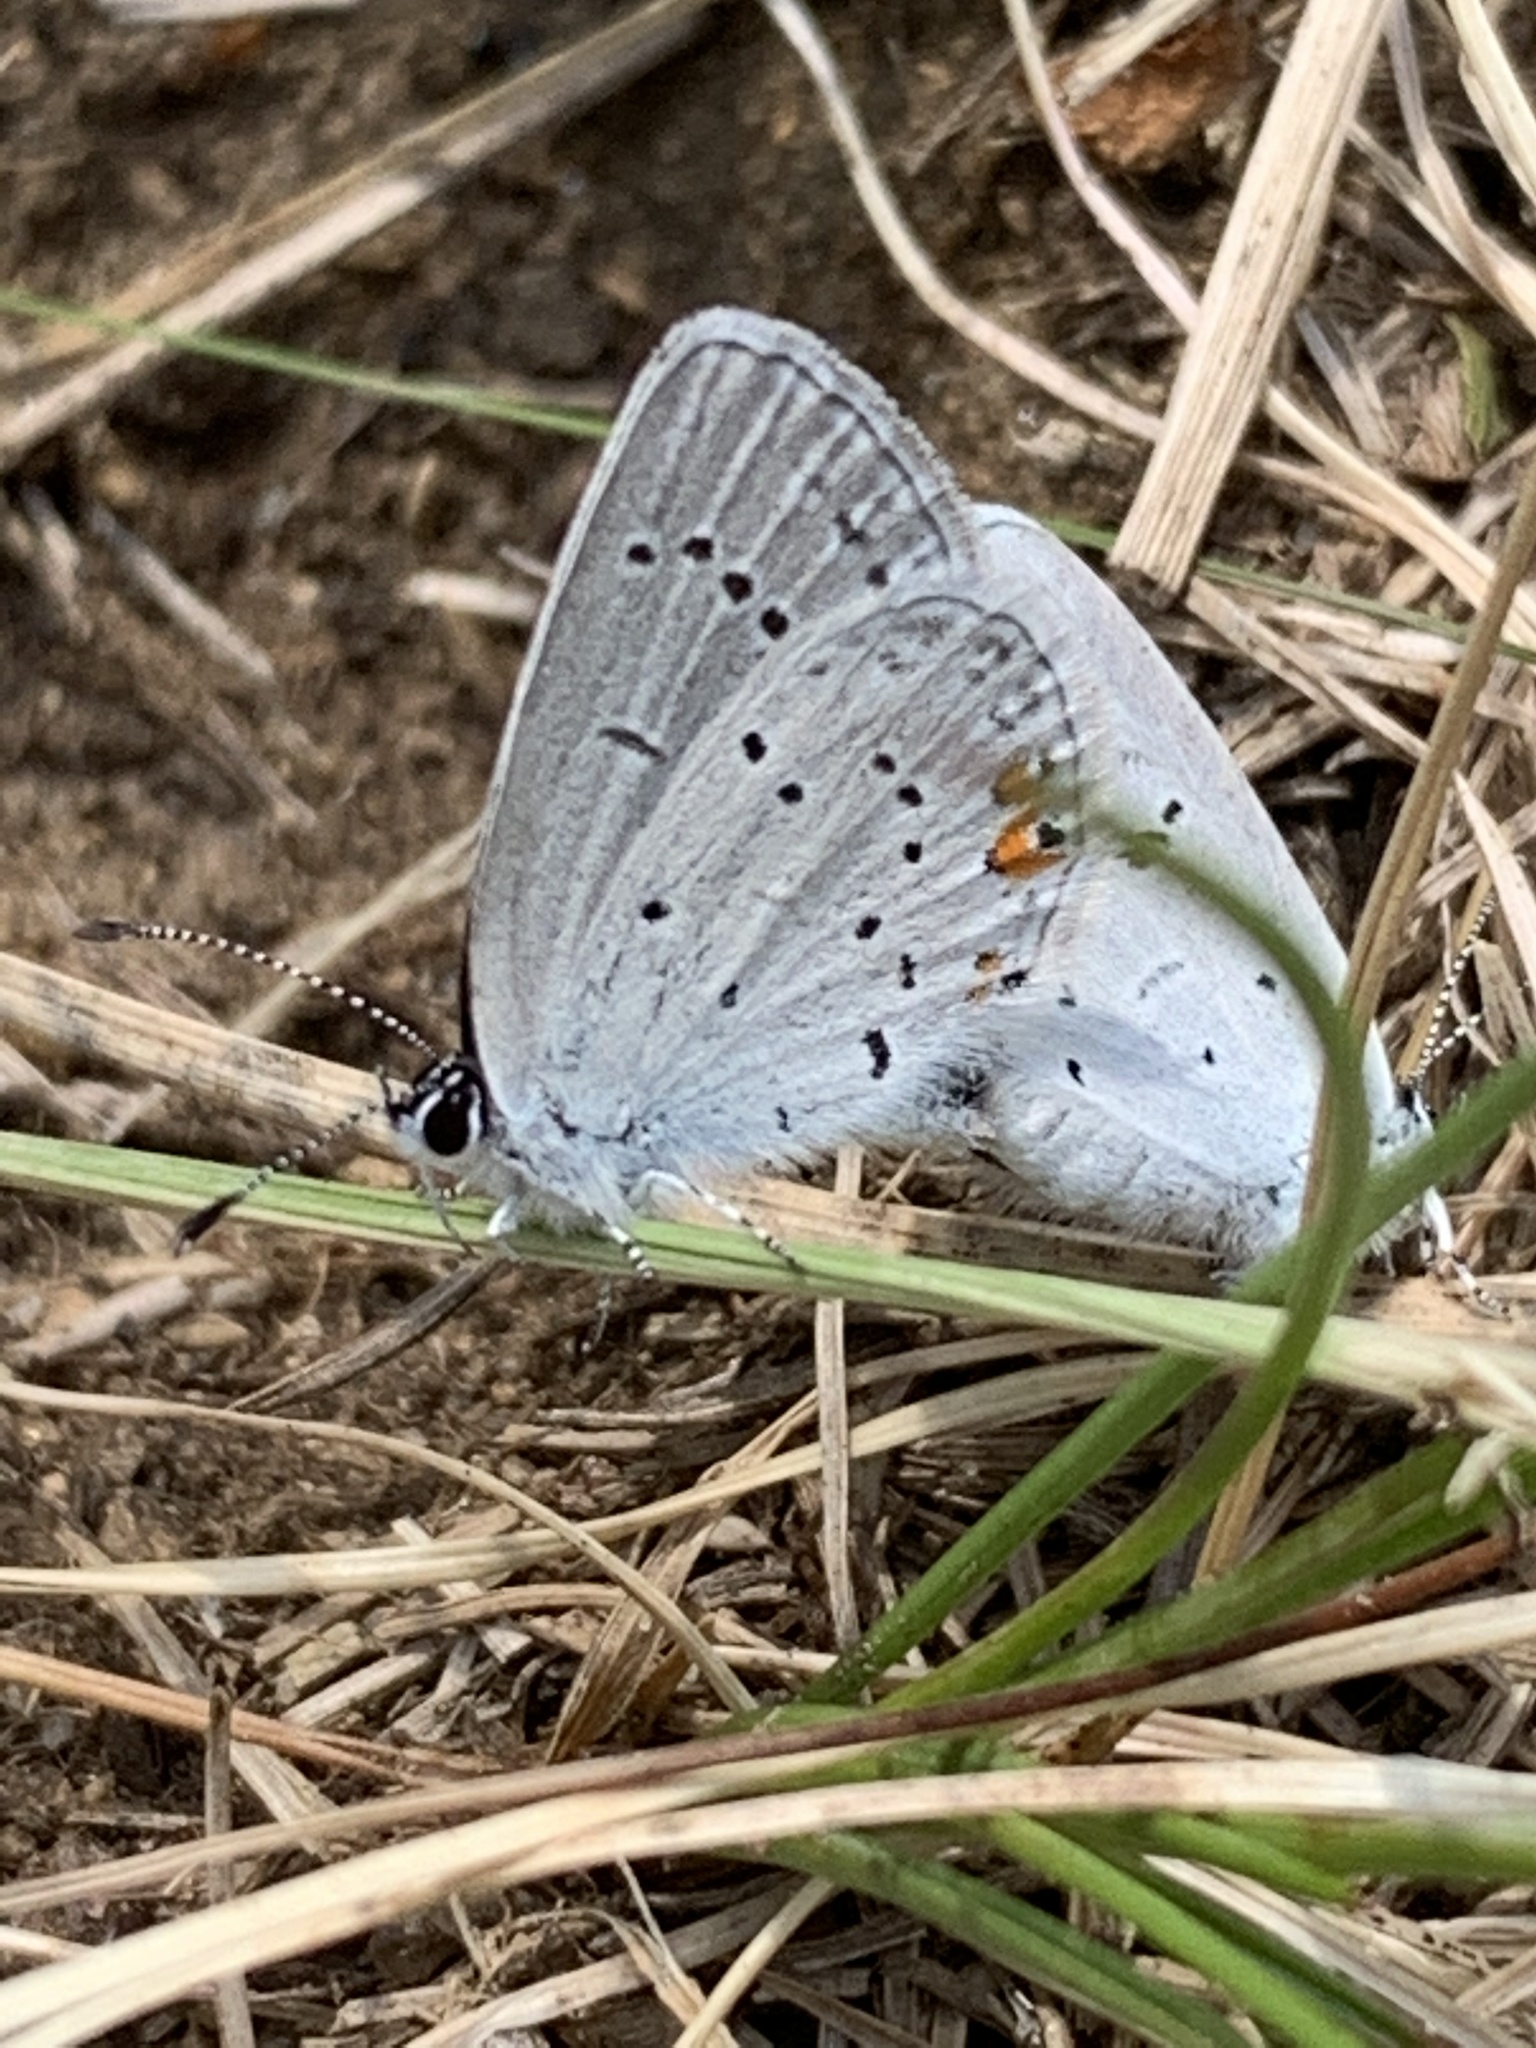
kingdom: Animalia
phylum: Arthropoda
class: Insecta
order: Lepidoptera
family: Lycaenidae
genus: Elkalyce
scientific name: Elkalyce comyntas
